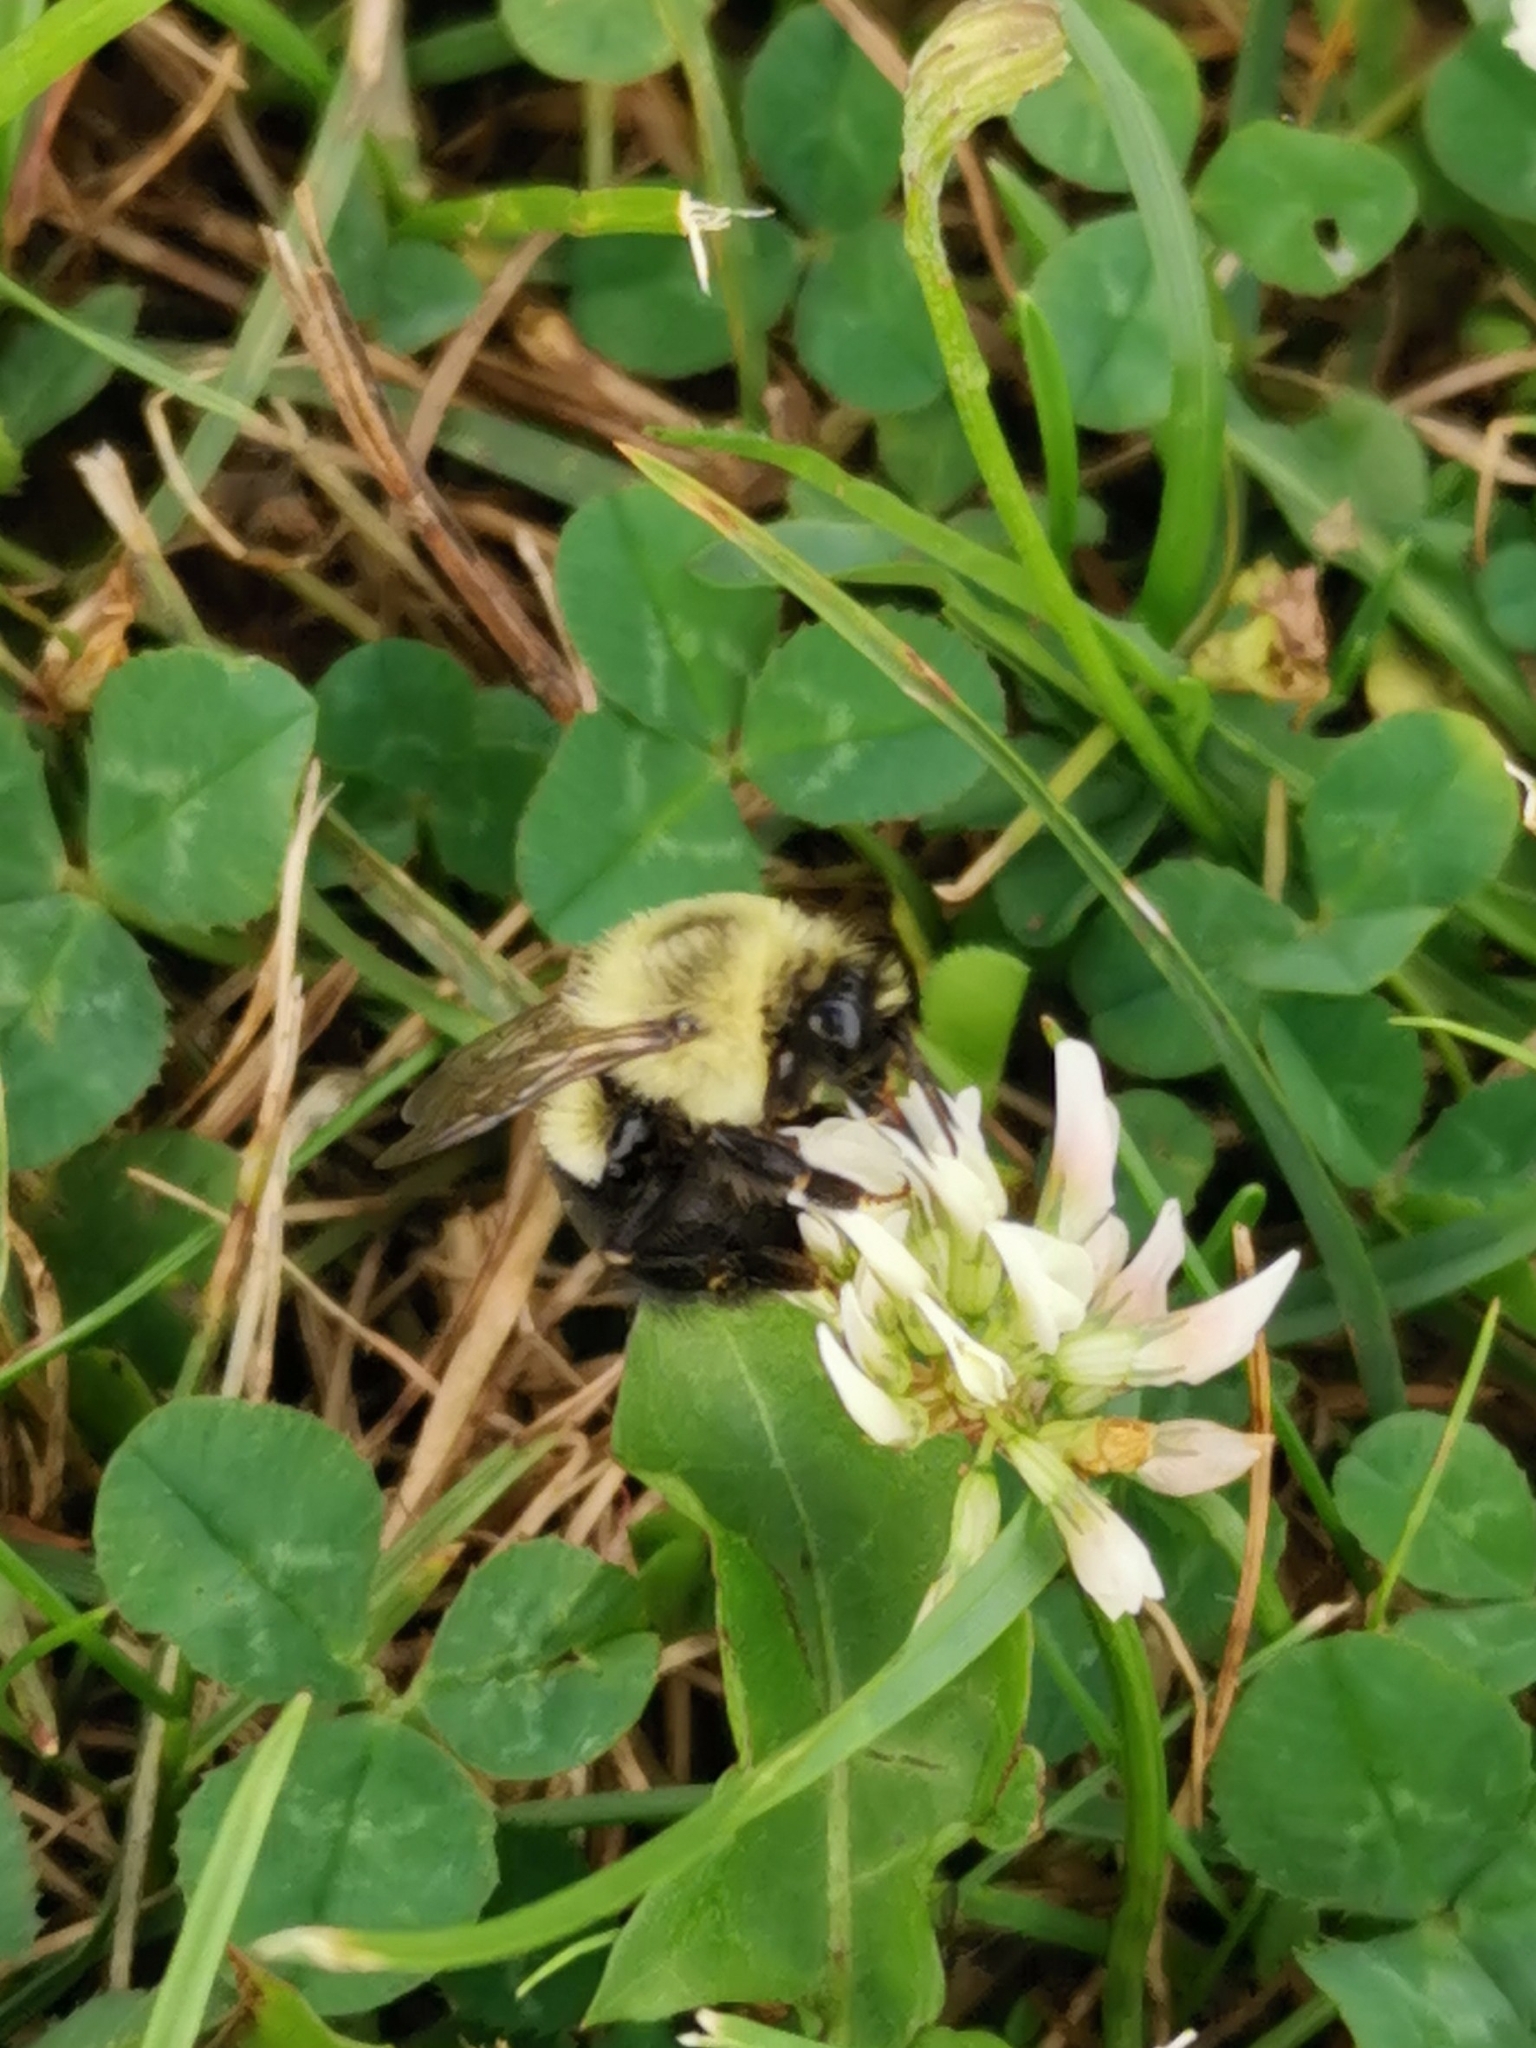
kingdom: Animalia
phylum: Arthropoda
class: Insecta
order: Hymenoptera
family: Apidae
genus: Bombus
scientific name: Bombus impatiens
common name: Common eastern bumble bee
